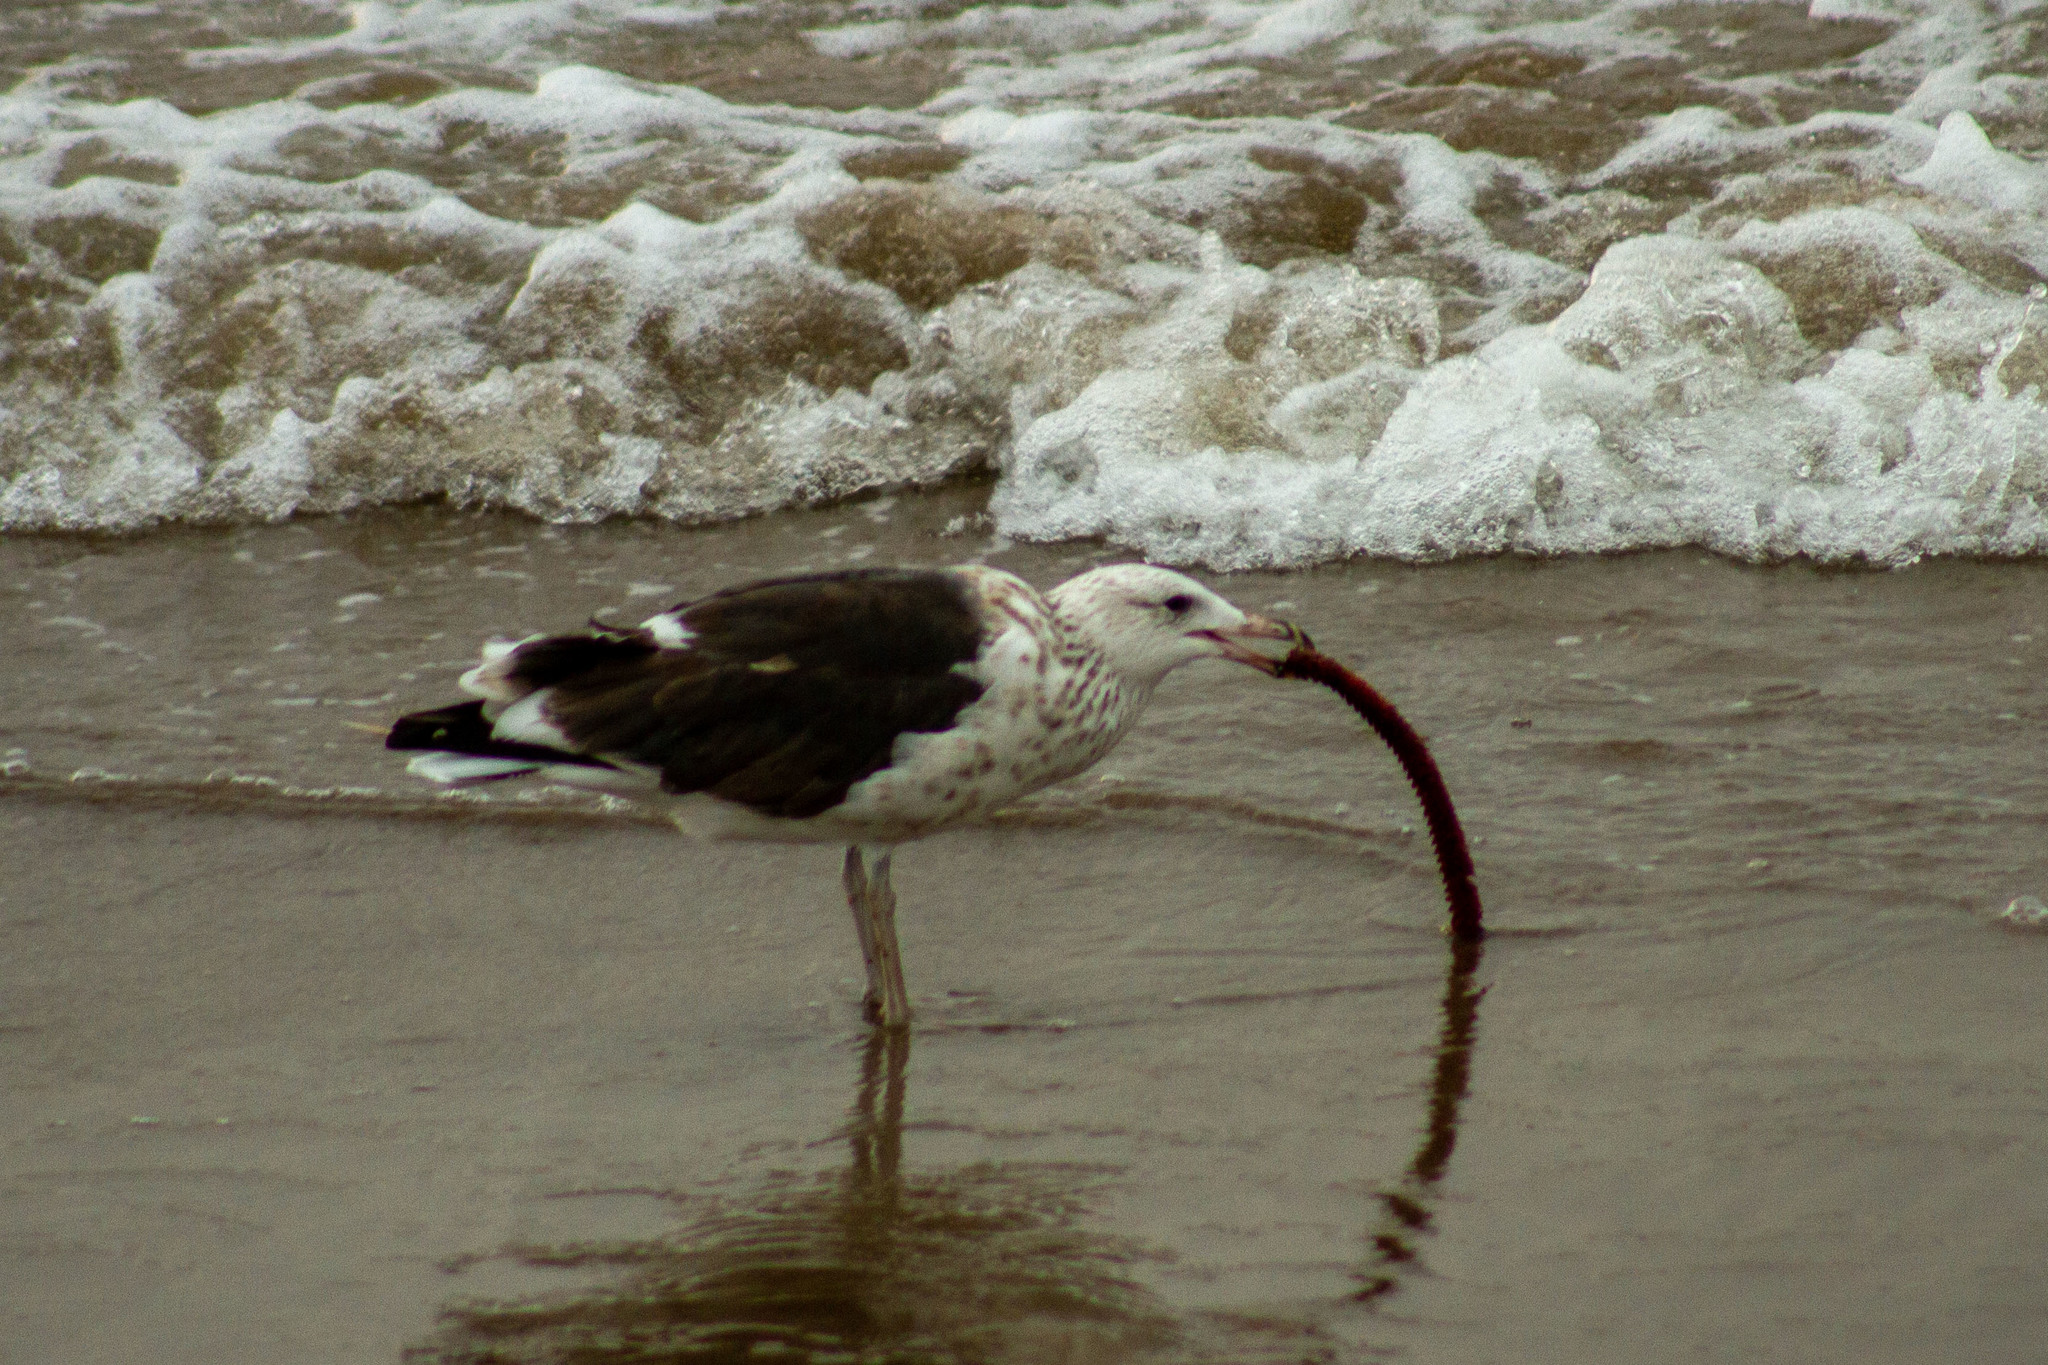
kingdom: Animalia
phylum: Chordata
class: Aves
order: Charadriiformes
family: Laridae
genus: Larus
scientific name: Larus dominicanus
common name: Kelp gull
